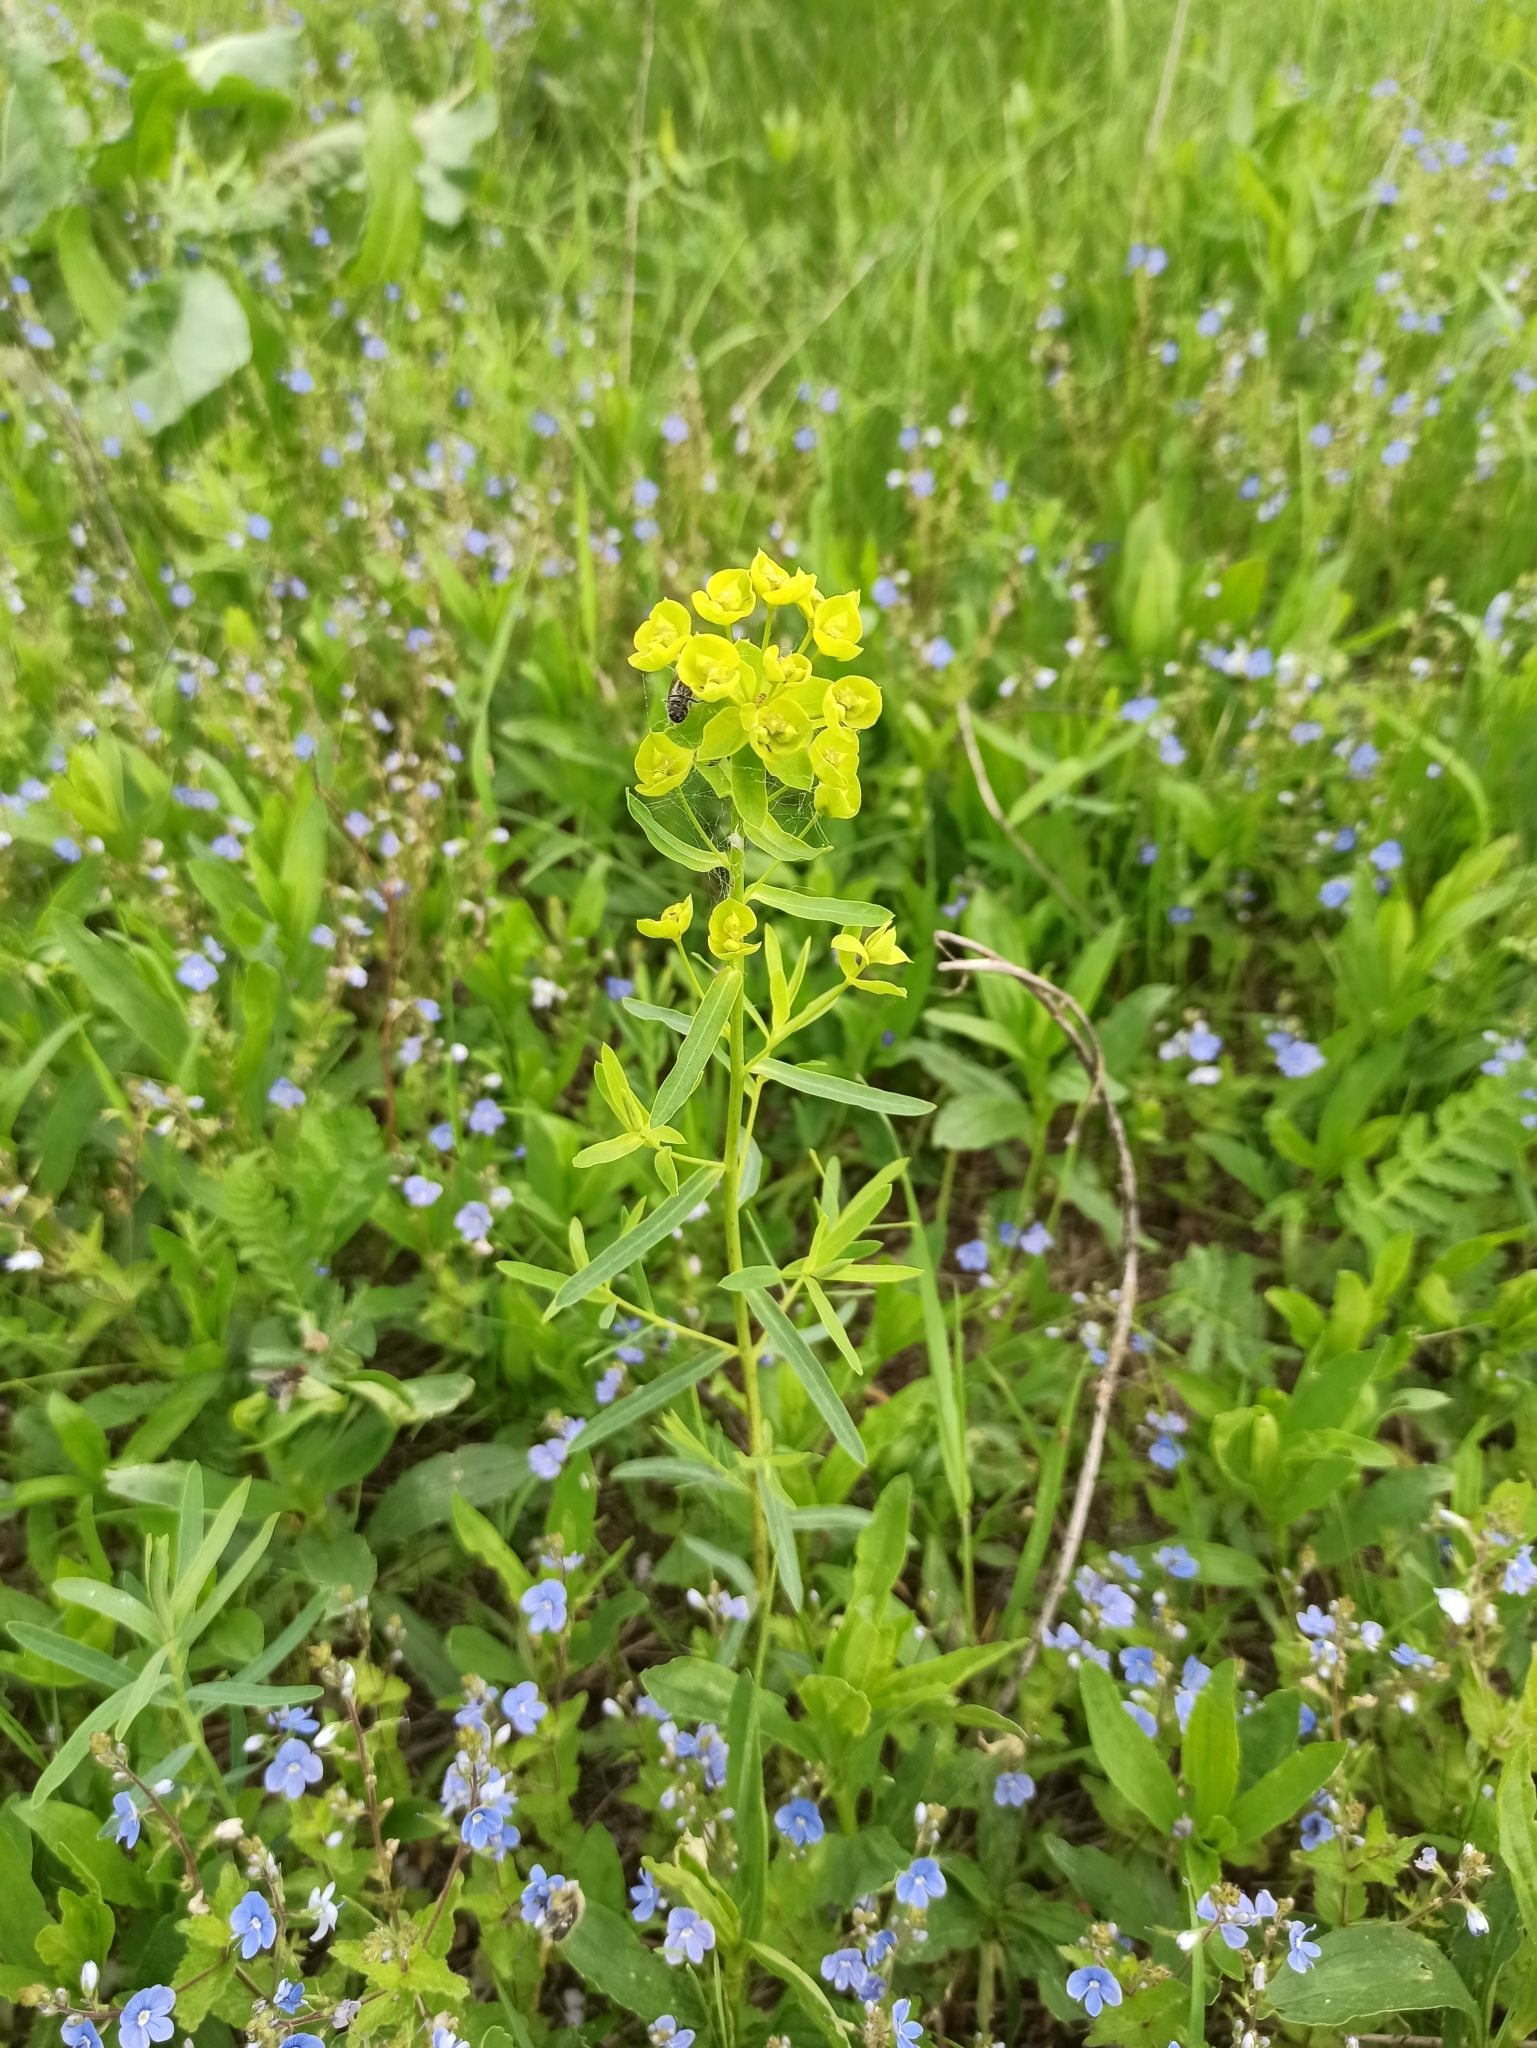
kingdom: Plantae
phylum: Tracheophyta
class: Magnoliopsida
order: Malpighiales
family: Euphorbiaceae
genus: Euphorbia
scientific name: Euphorbia virgata
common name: Leafy spurge
